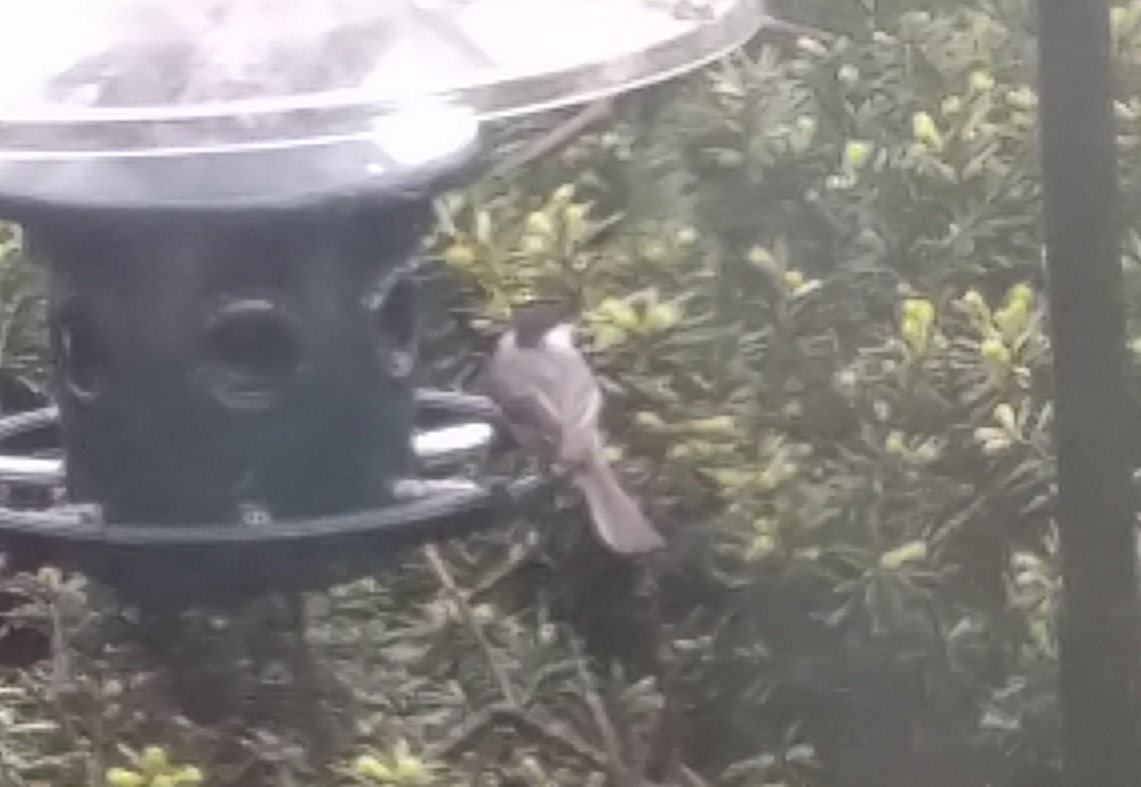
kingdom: Animalia
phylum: Chordata
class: Aves
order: Passeriformes
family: Paridae
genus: Poecile
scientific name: Poecile carolinensis
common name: Carolina chickadee
